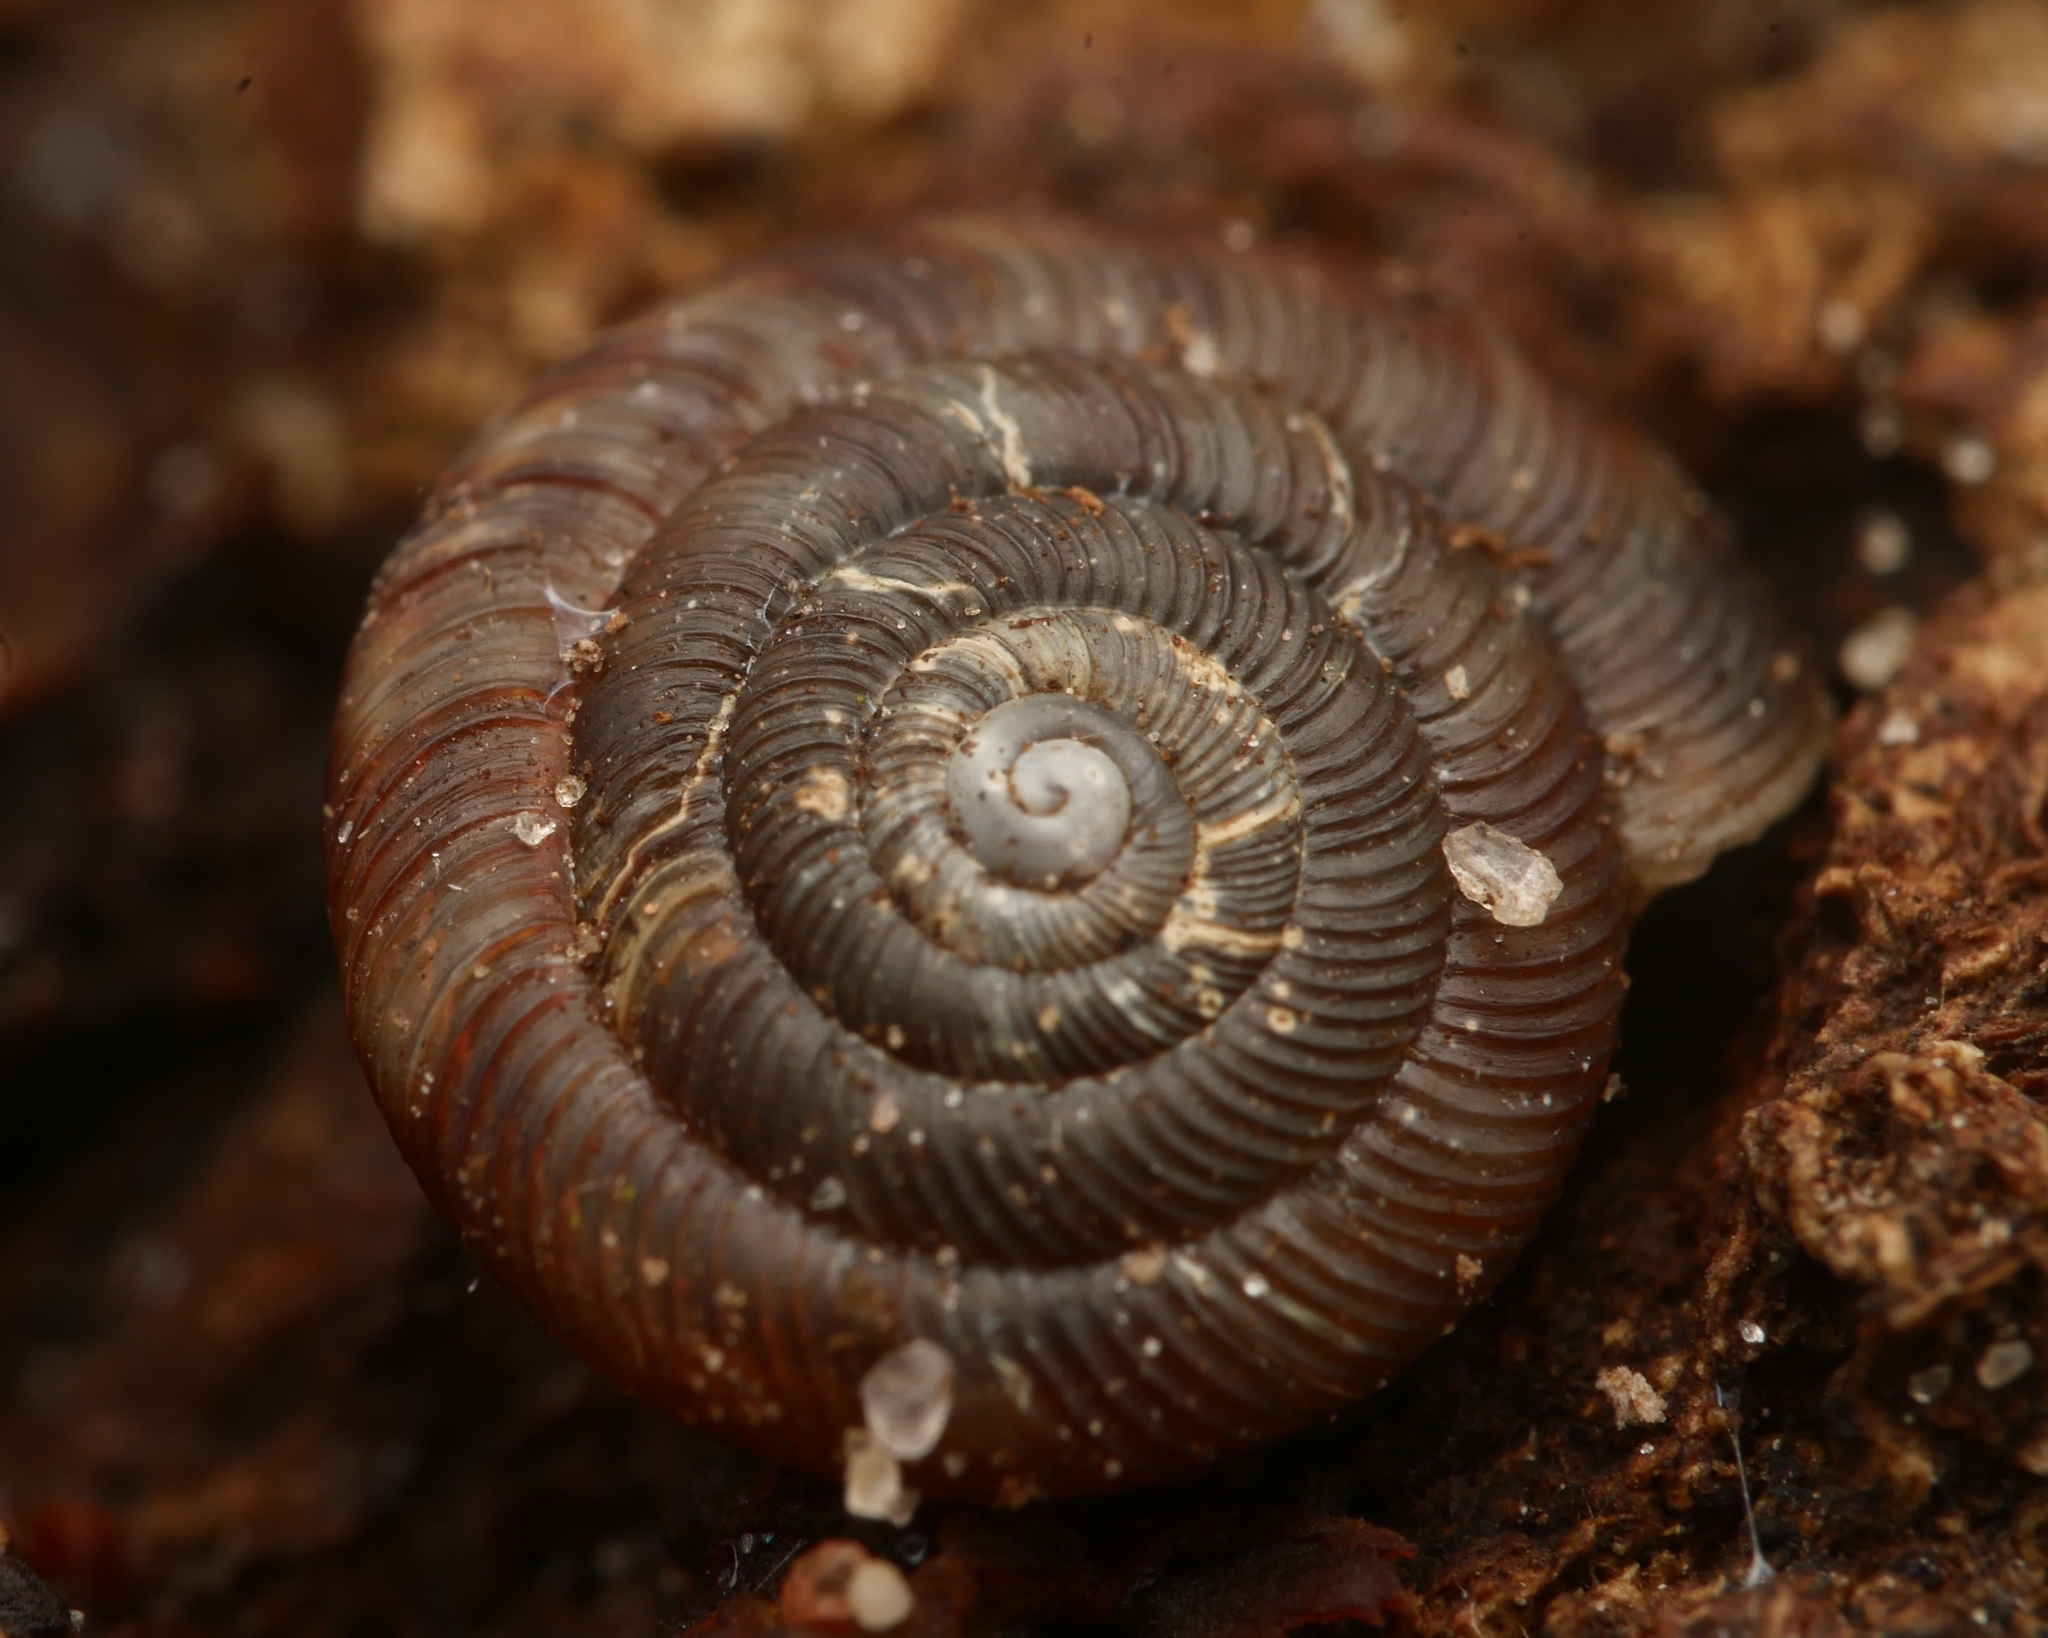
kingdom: Animalia
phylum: Mollusca
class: Gastropoda
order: Stylommatophora
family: Discidae
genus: Discus
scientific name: Discus rotundatus
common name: Rounded snail
